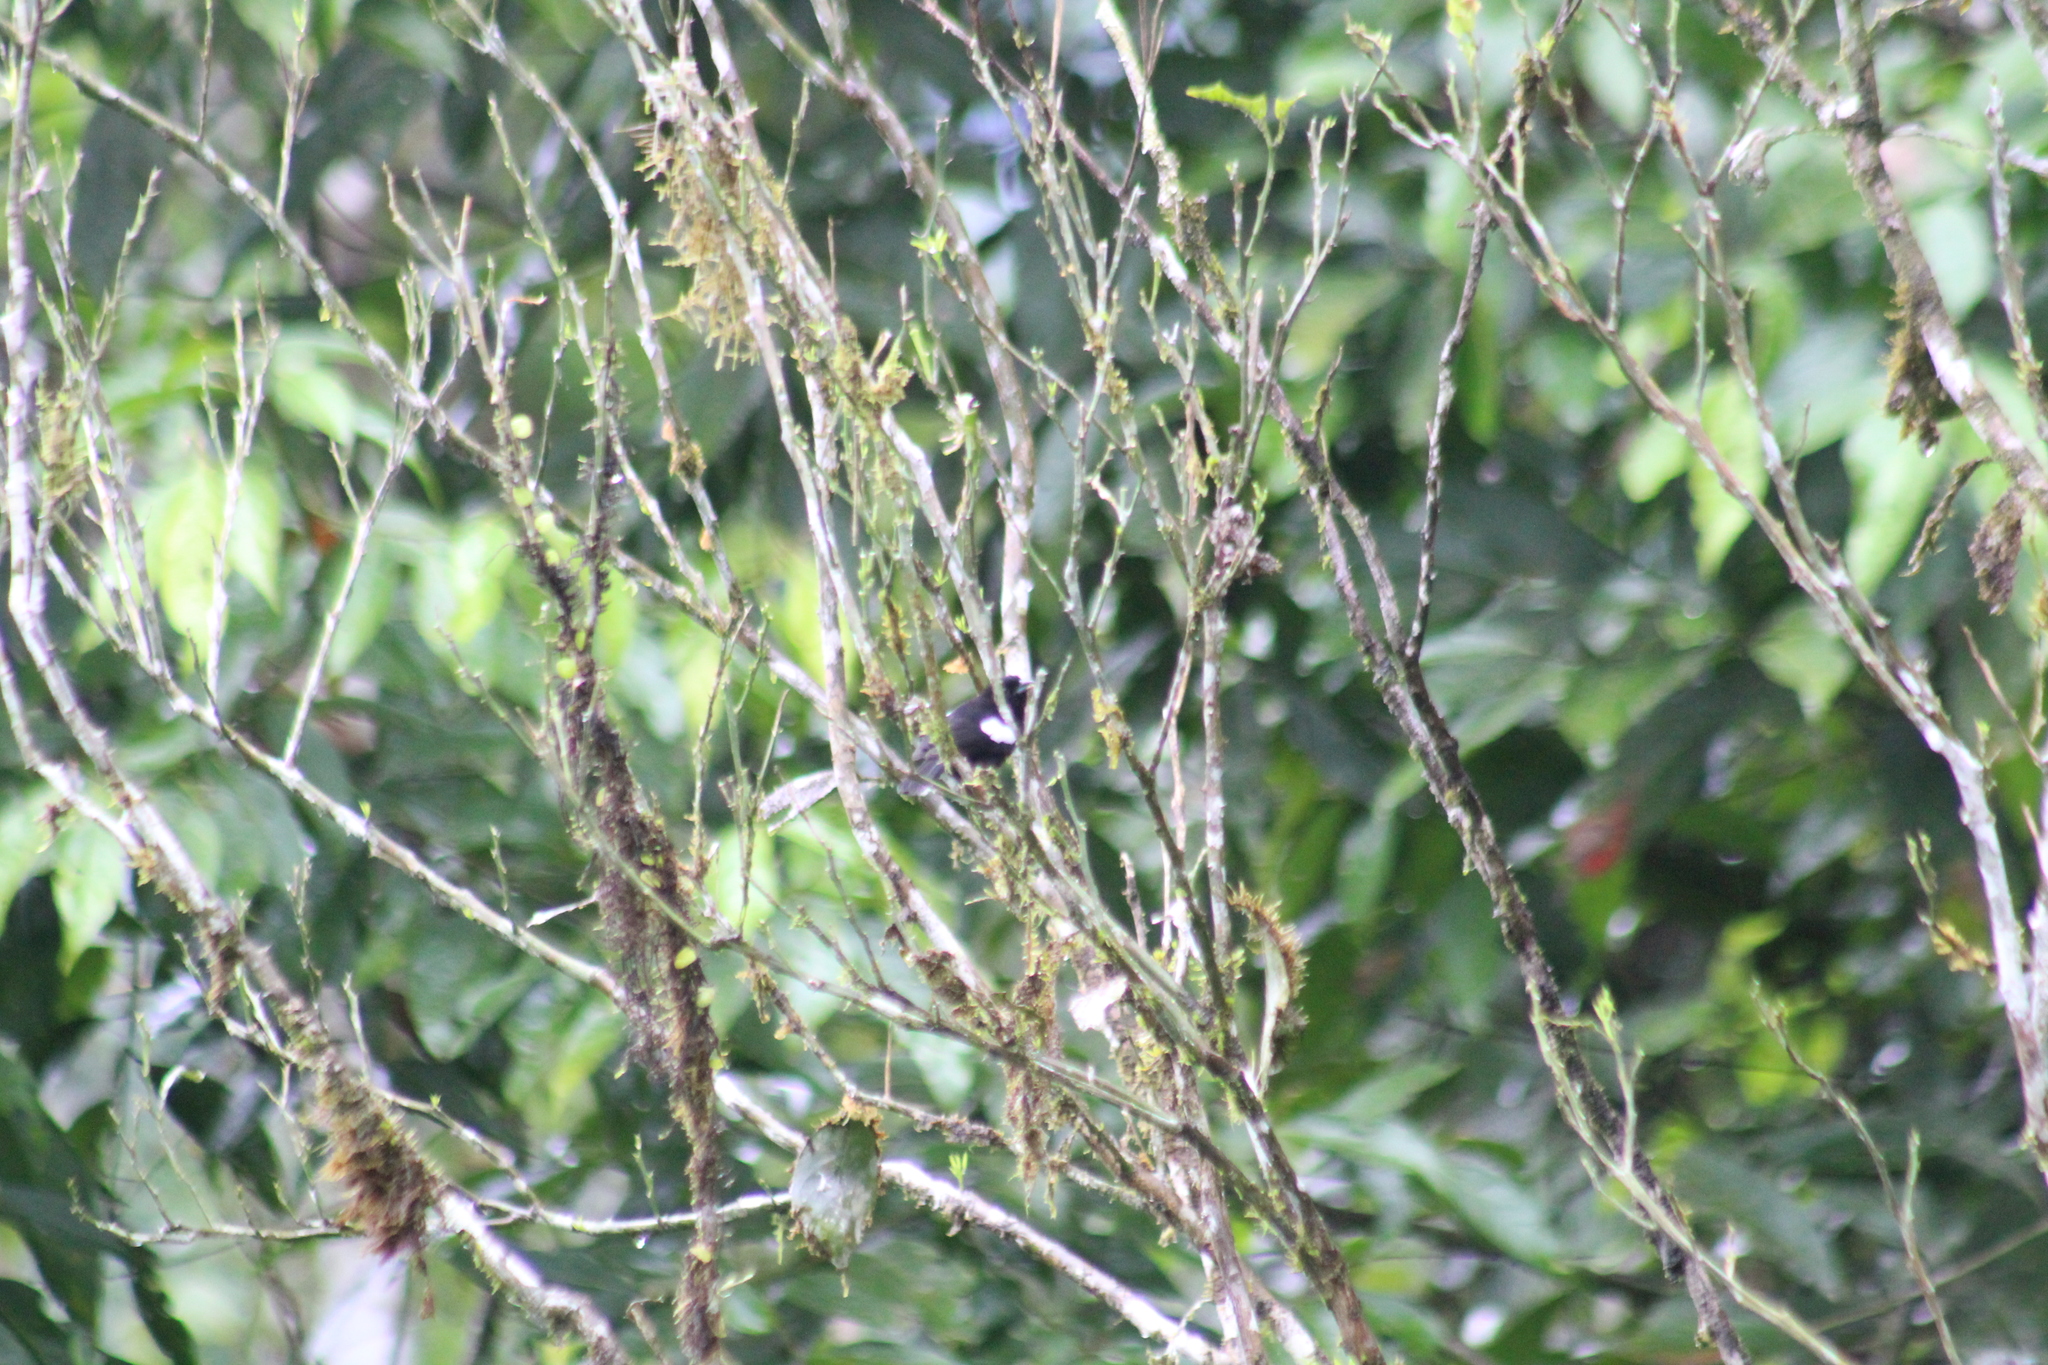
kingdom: Animalia
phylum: Chordata
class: Aves
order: Passeriformes
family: Thraupidae
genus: Loriotus
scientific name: Loriotus luctuosus
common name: White-shouldered tanager
